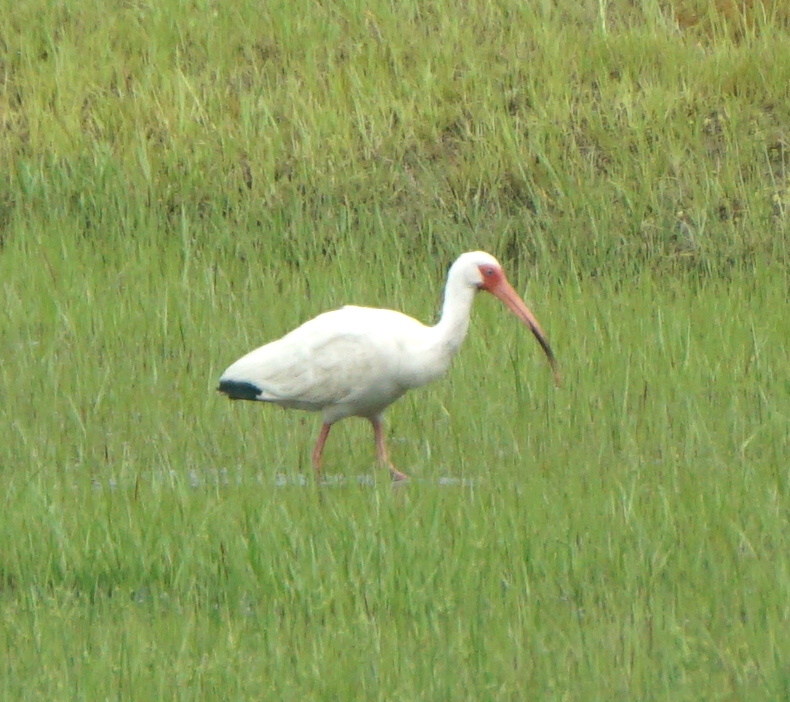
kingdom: Animalia
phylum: Chordata
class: Aves
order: Pelecaniformes
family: Threskiornithidae
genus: Eudocimus
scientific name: Eudocimus albus
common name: White ibis
